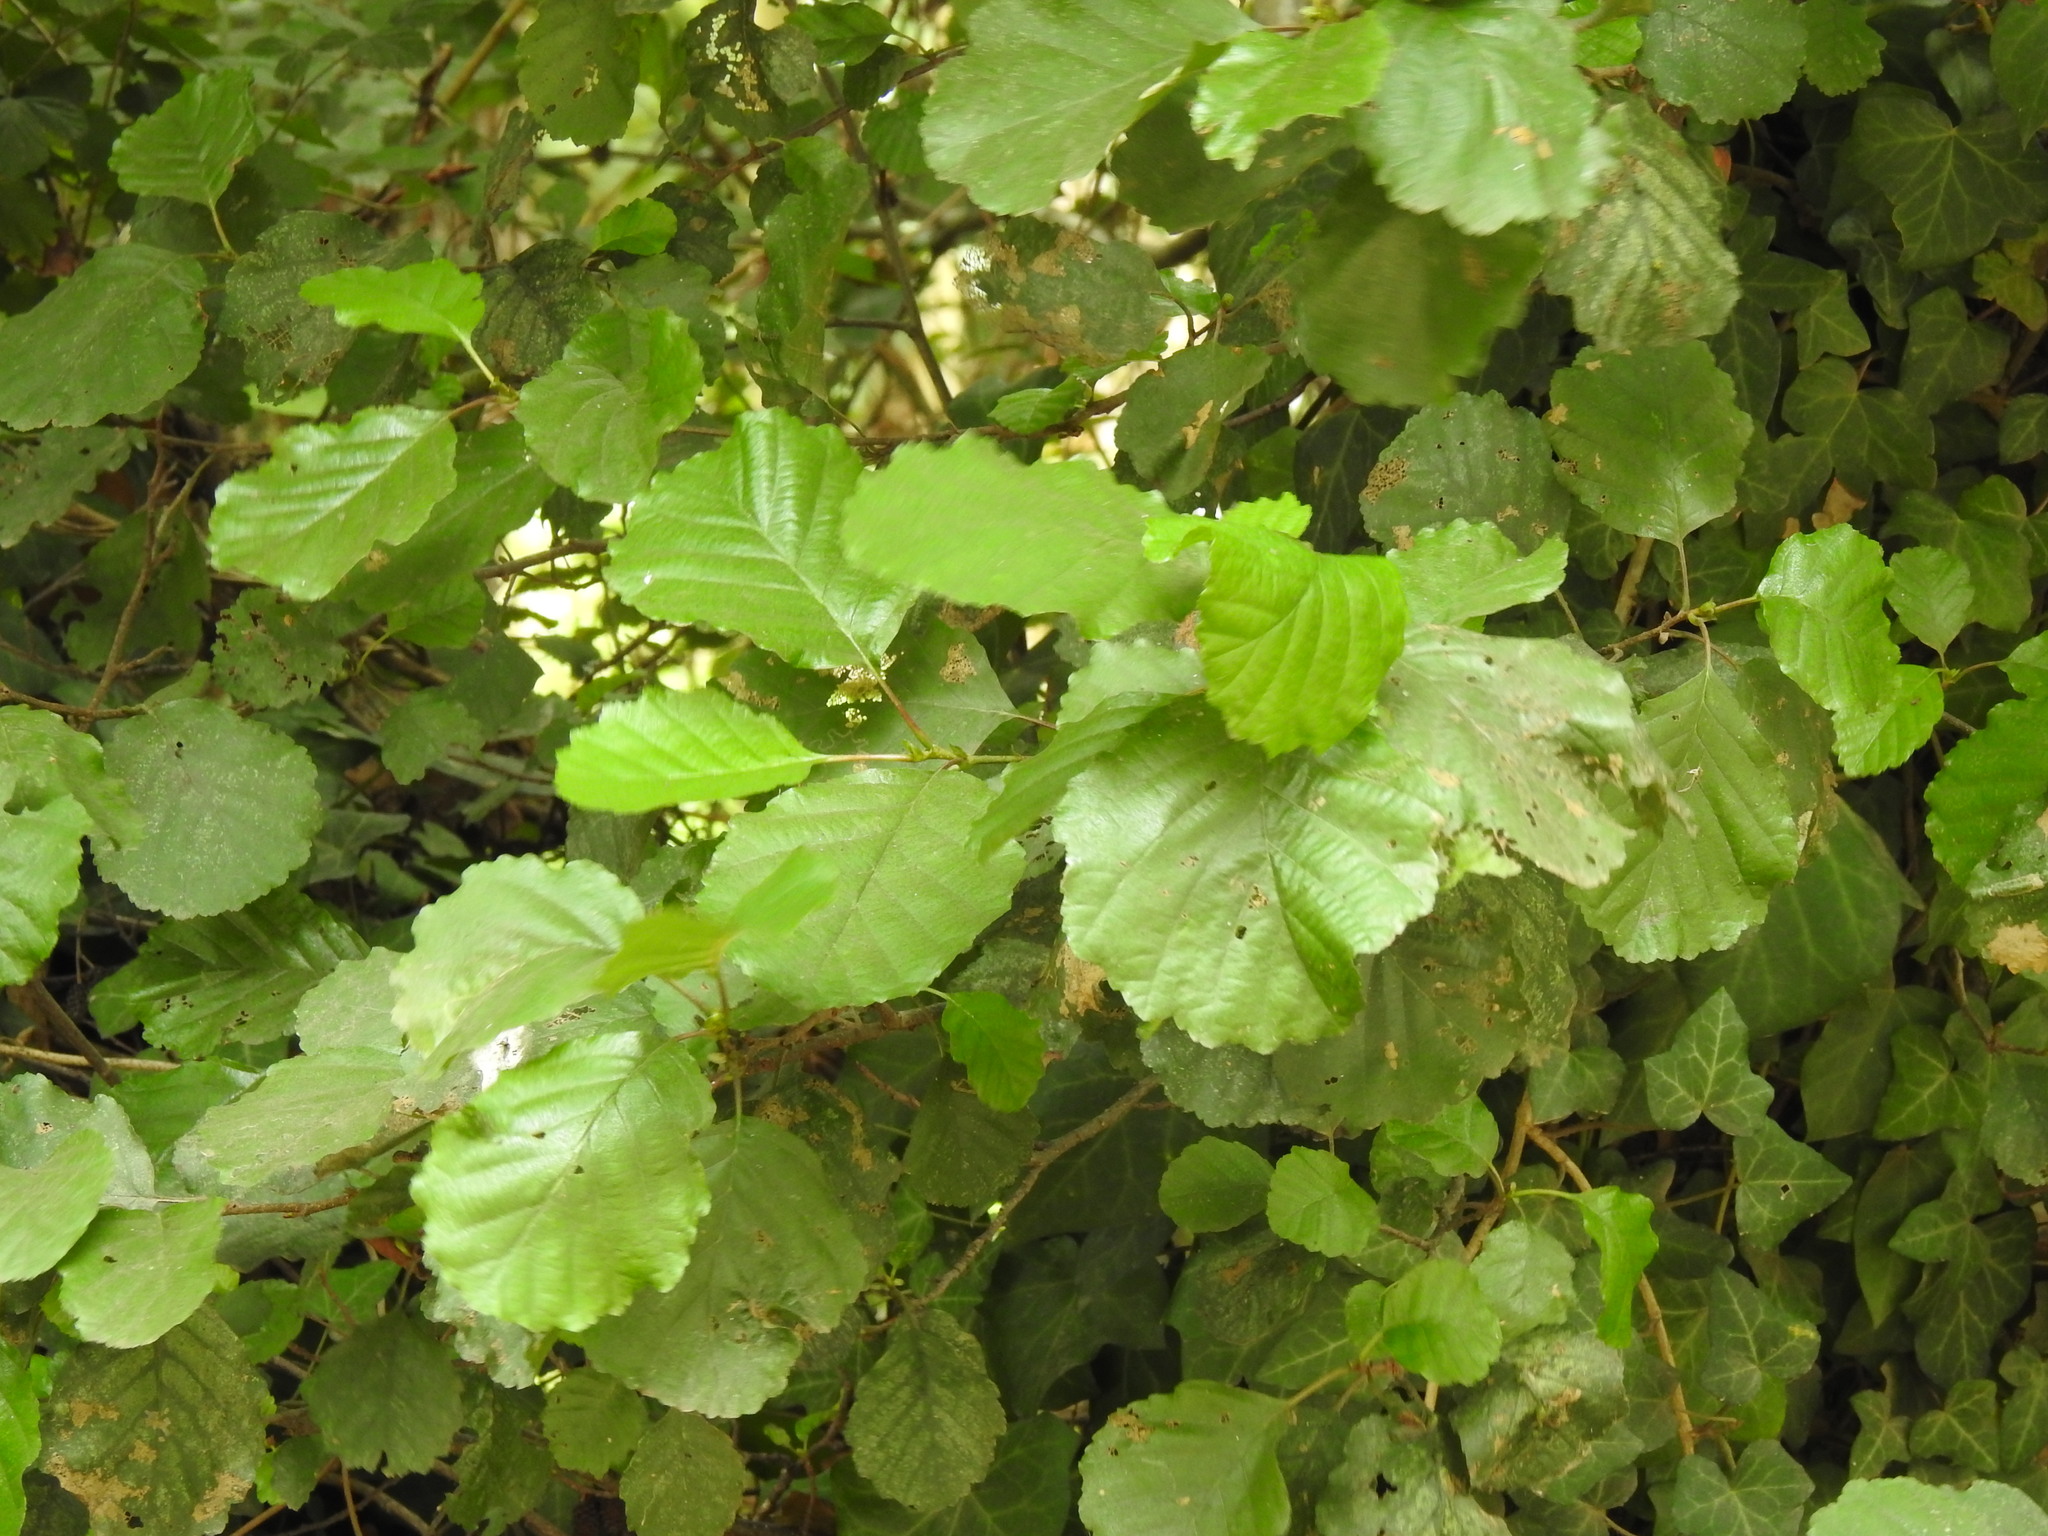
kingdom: Plantae
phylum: Tracheophyta
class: Magnoliopsida
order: Fagales
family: Betulaceae
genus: Alnus
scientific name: Alnus lusitanica
